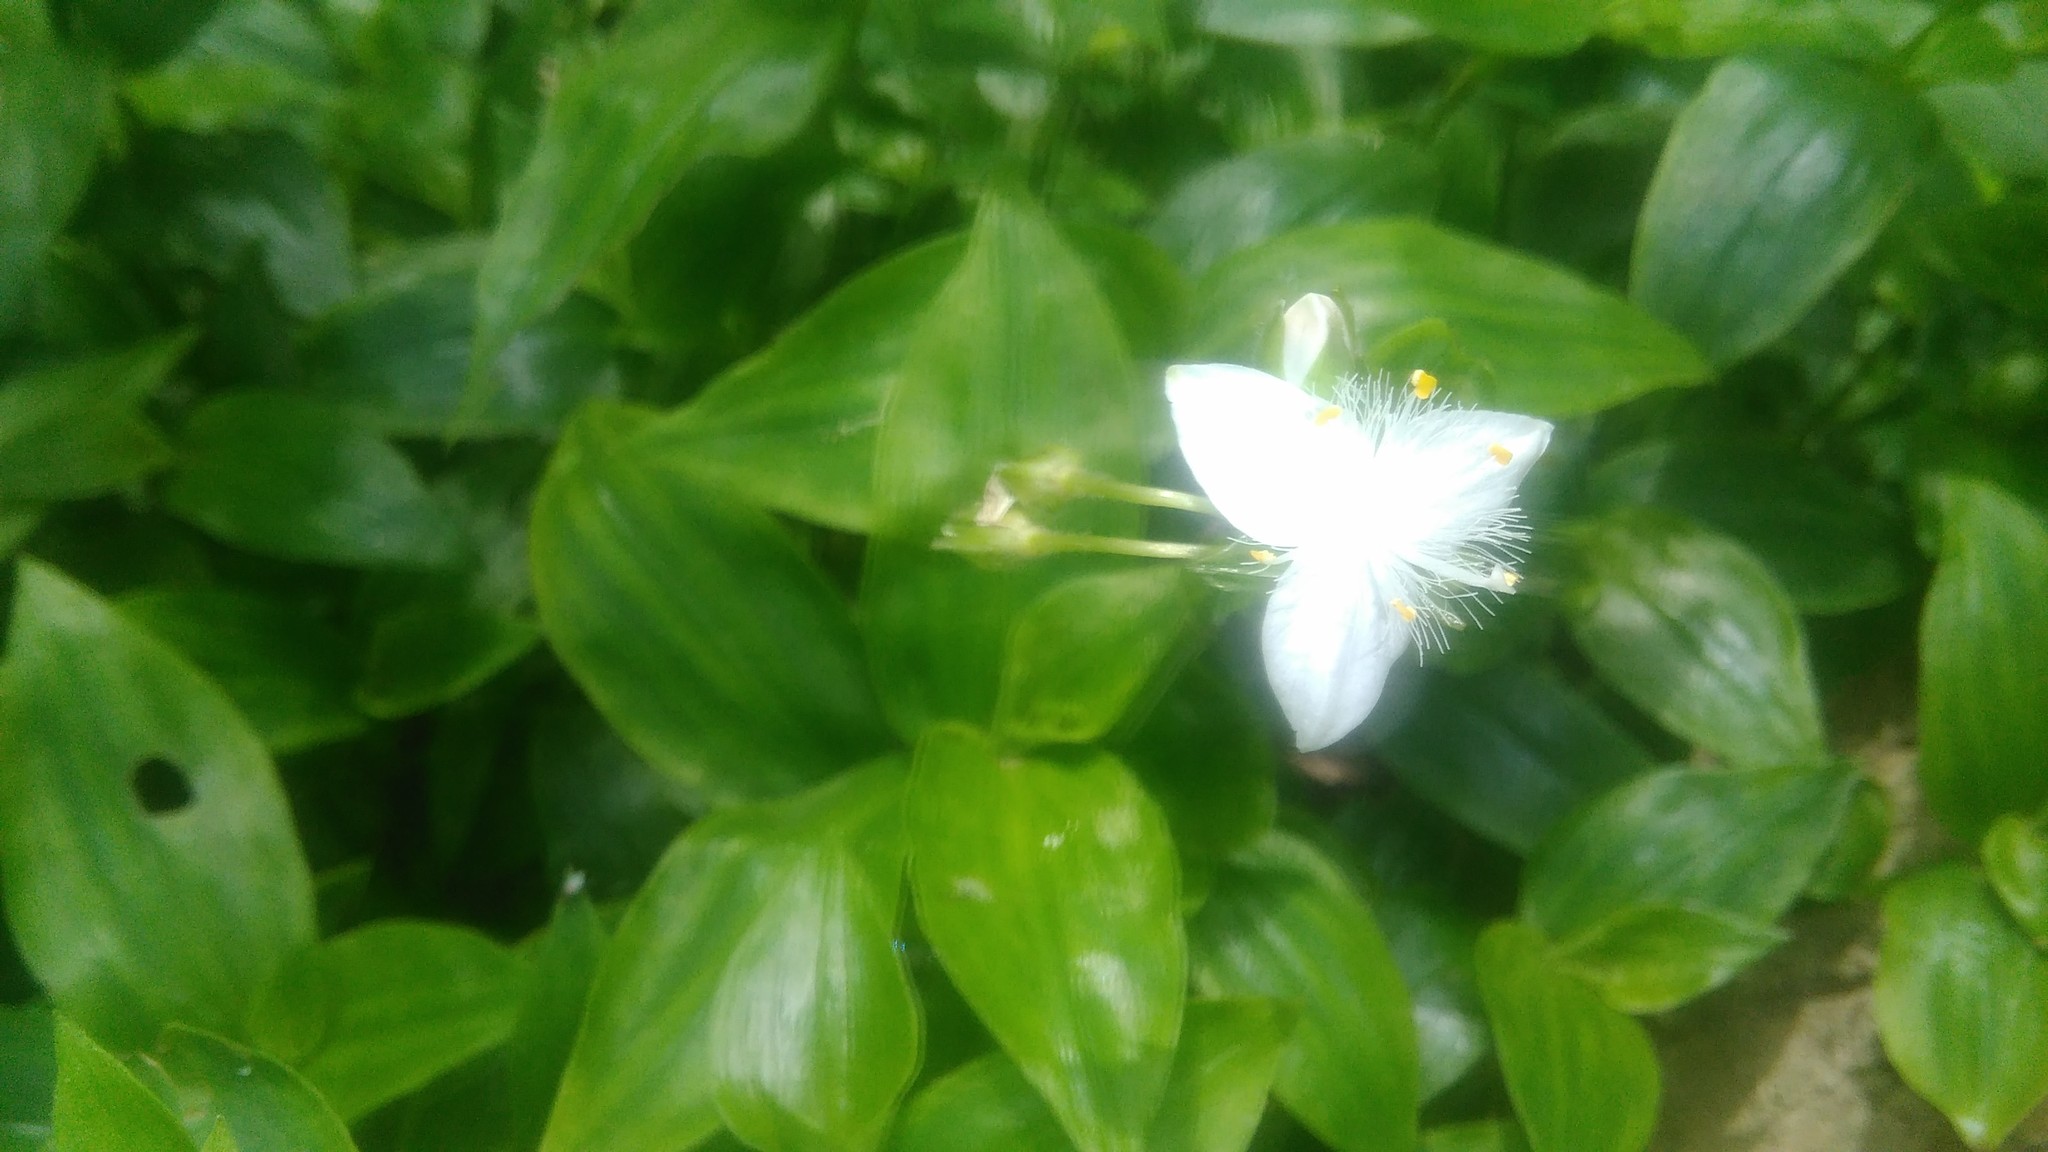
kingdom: Plantae
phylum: Tracheophyta
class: Liliopsida
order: Commelinales
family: Commelinaceae
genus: Tradescantia
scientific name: Tradescantia fluminensis
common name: Wandering-jew
